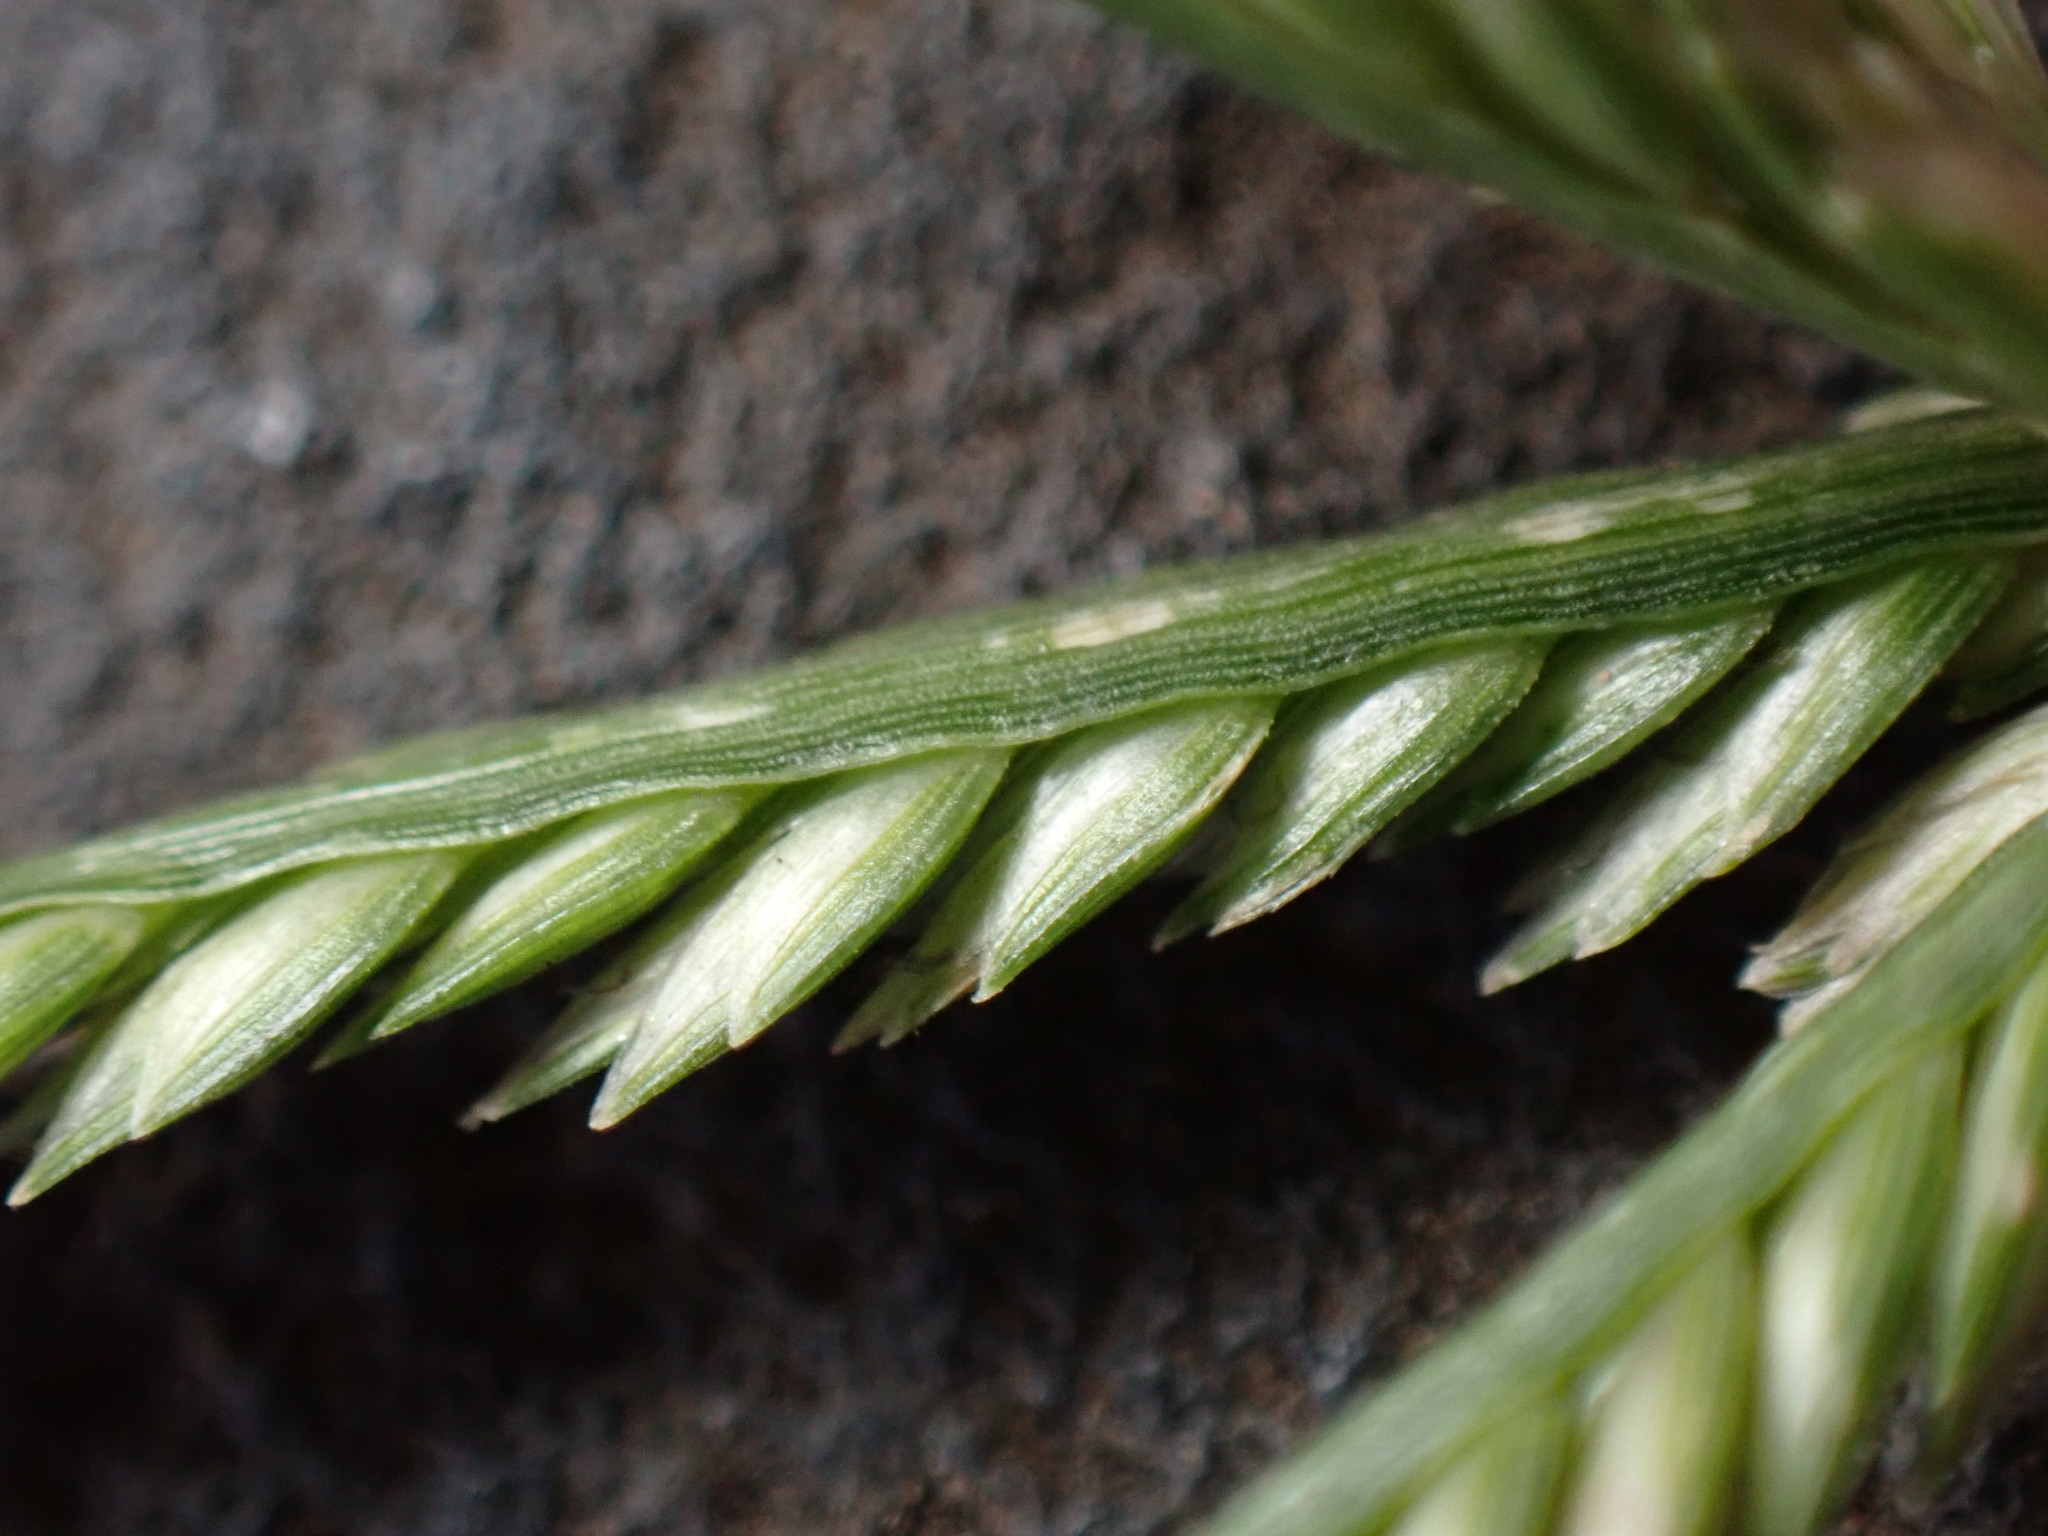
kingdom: Plantae
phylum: Tracheophyta
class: Liliopsida
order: Poales
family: Poaceae
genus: Eleusine
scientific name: Eleusine indica
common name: Yard-grass
